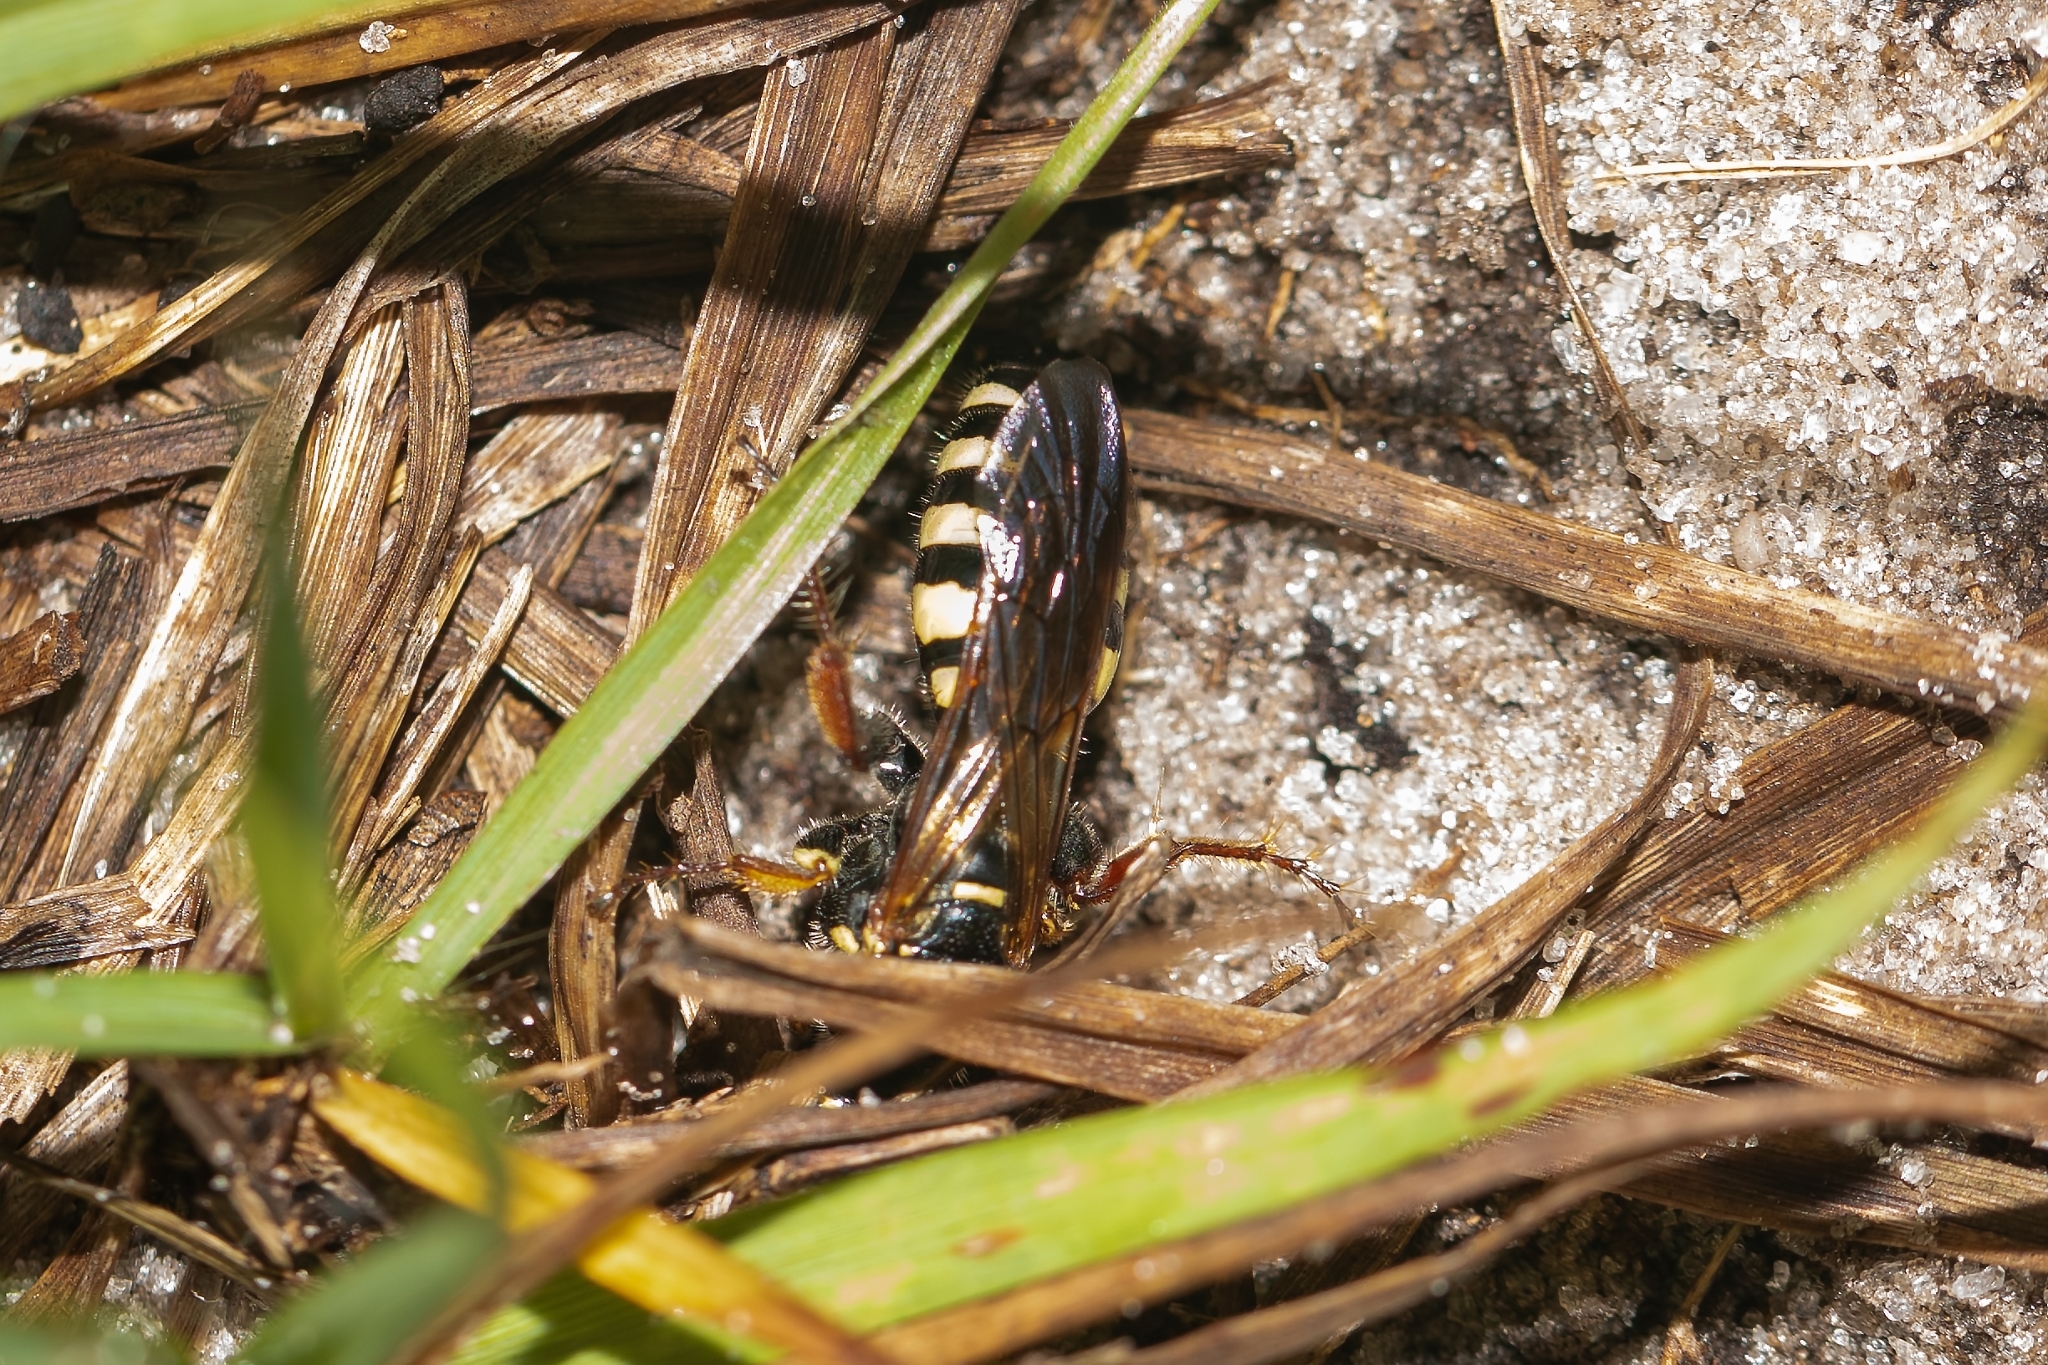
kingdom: Animalia
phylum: Arthropoda
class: Insecta
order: Hymenoptera
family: Tiphiidae
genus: Myzinum
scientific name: Myzinum carolinianum
